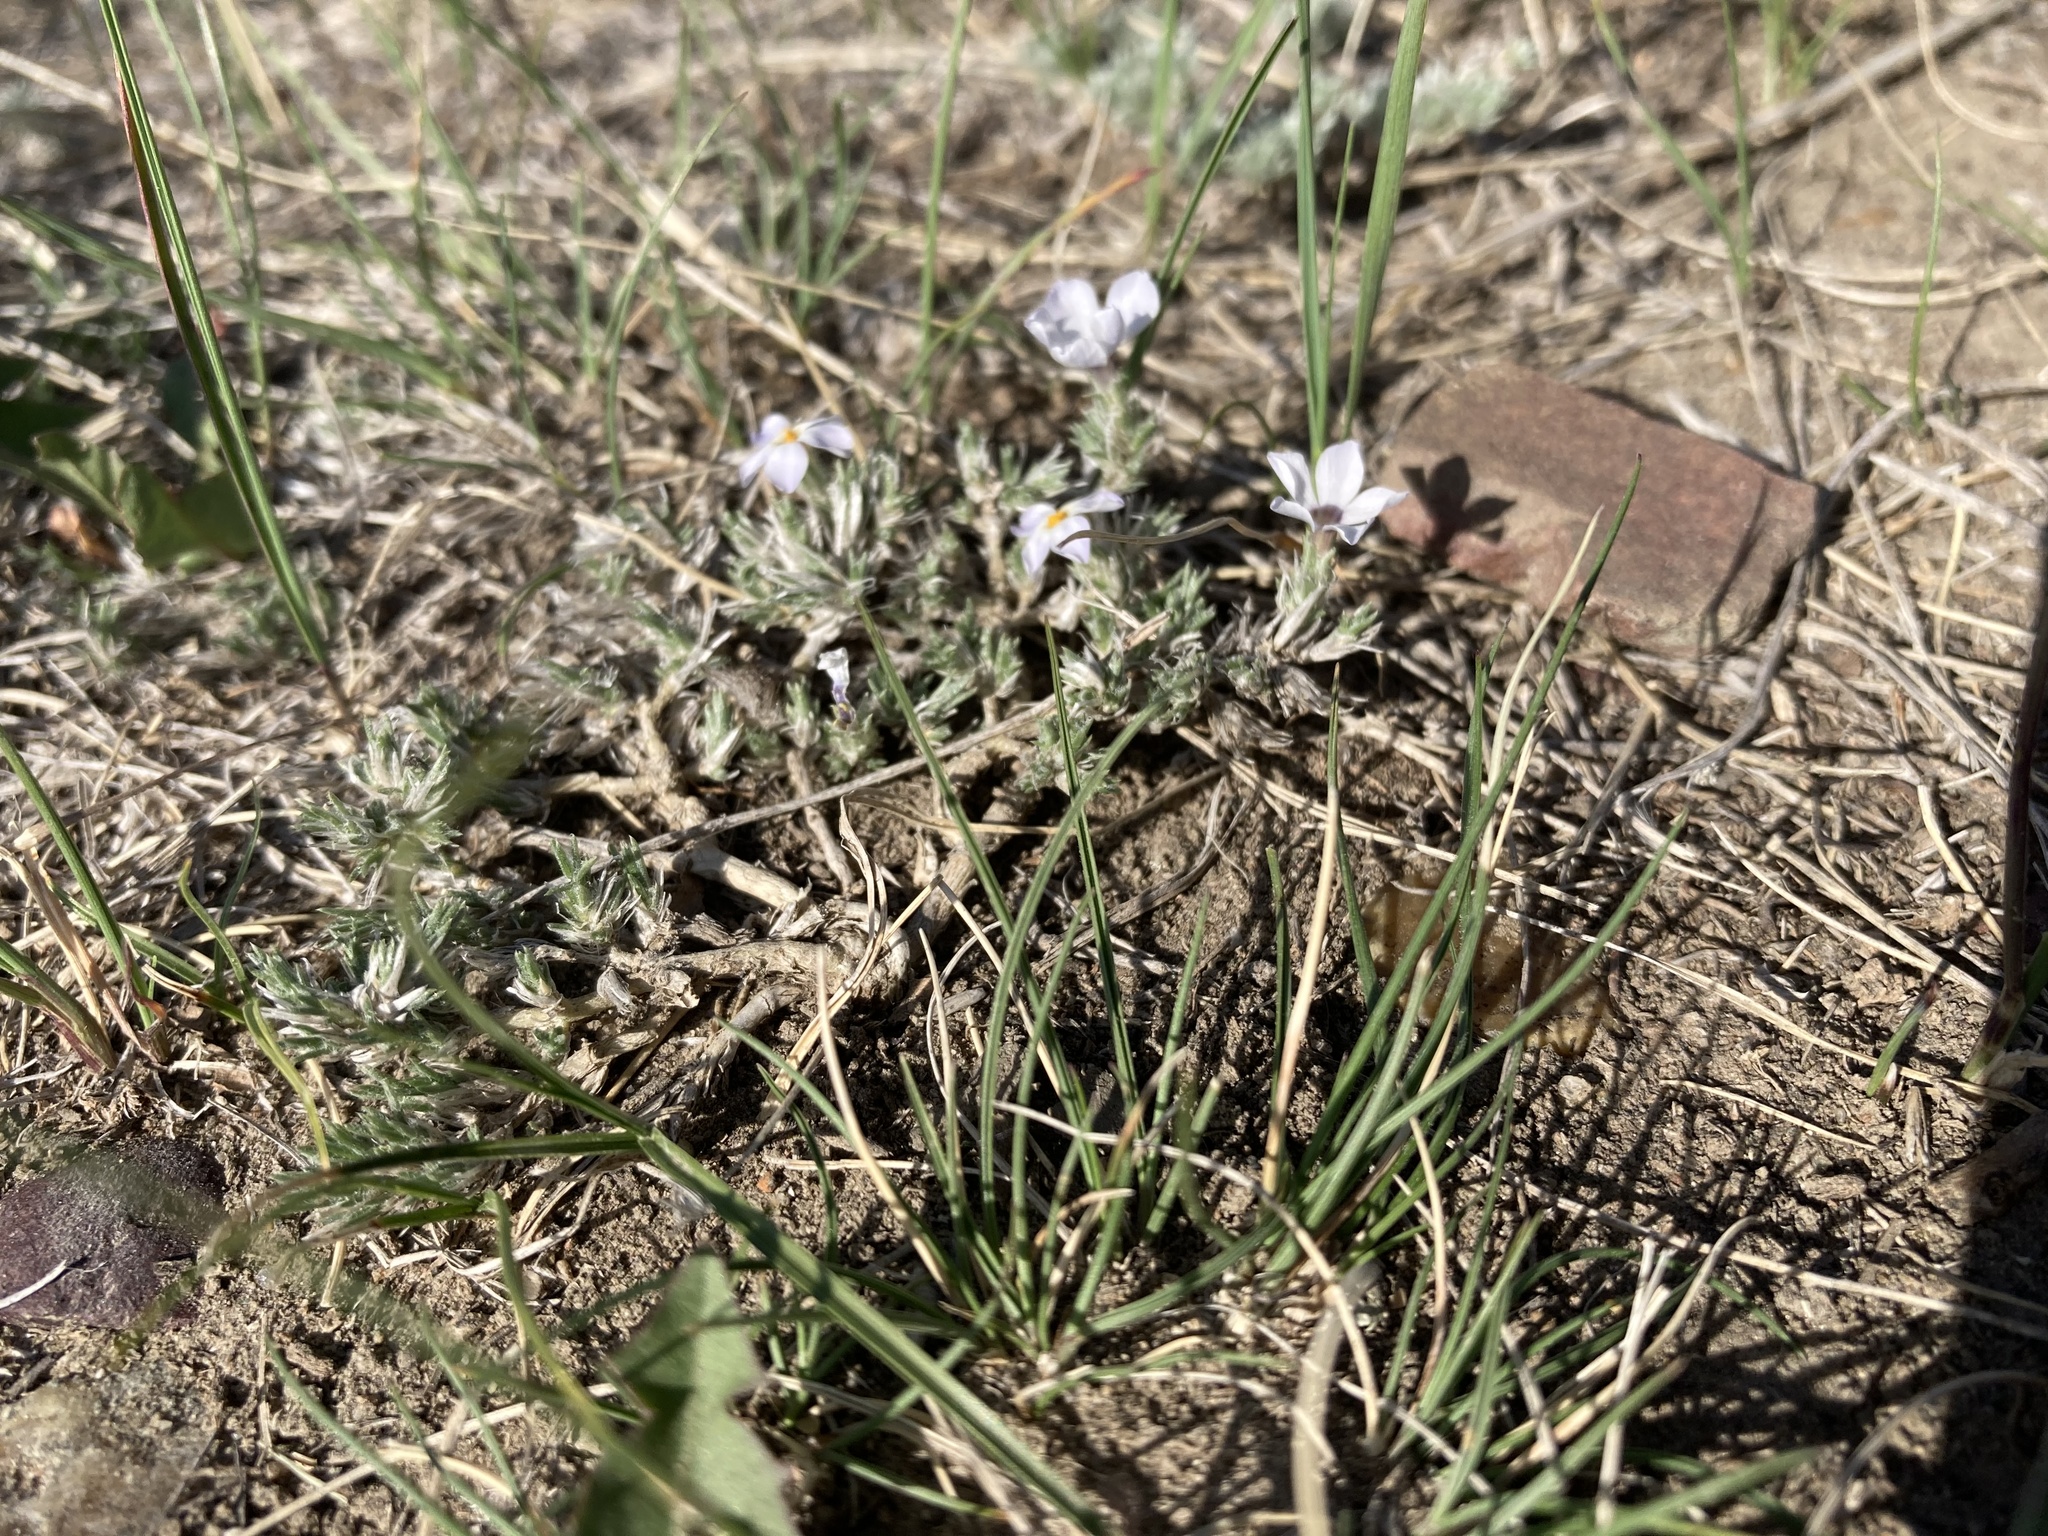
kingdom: Plantae
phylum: Tracheophyta
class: Magnoliopsida
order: Ericales
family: Polemoniaceae
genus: Phlox
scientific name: Phlox hoodii
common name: Moss phlox
